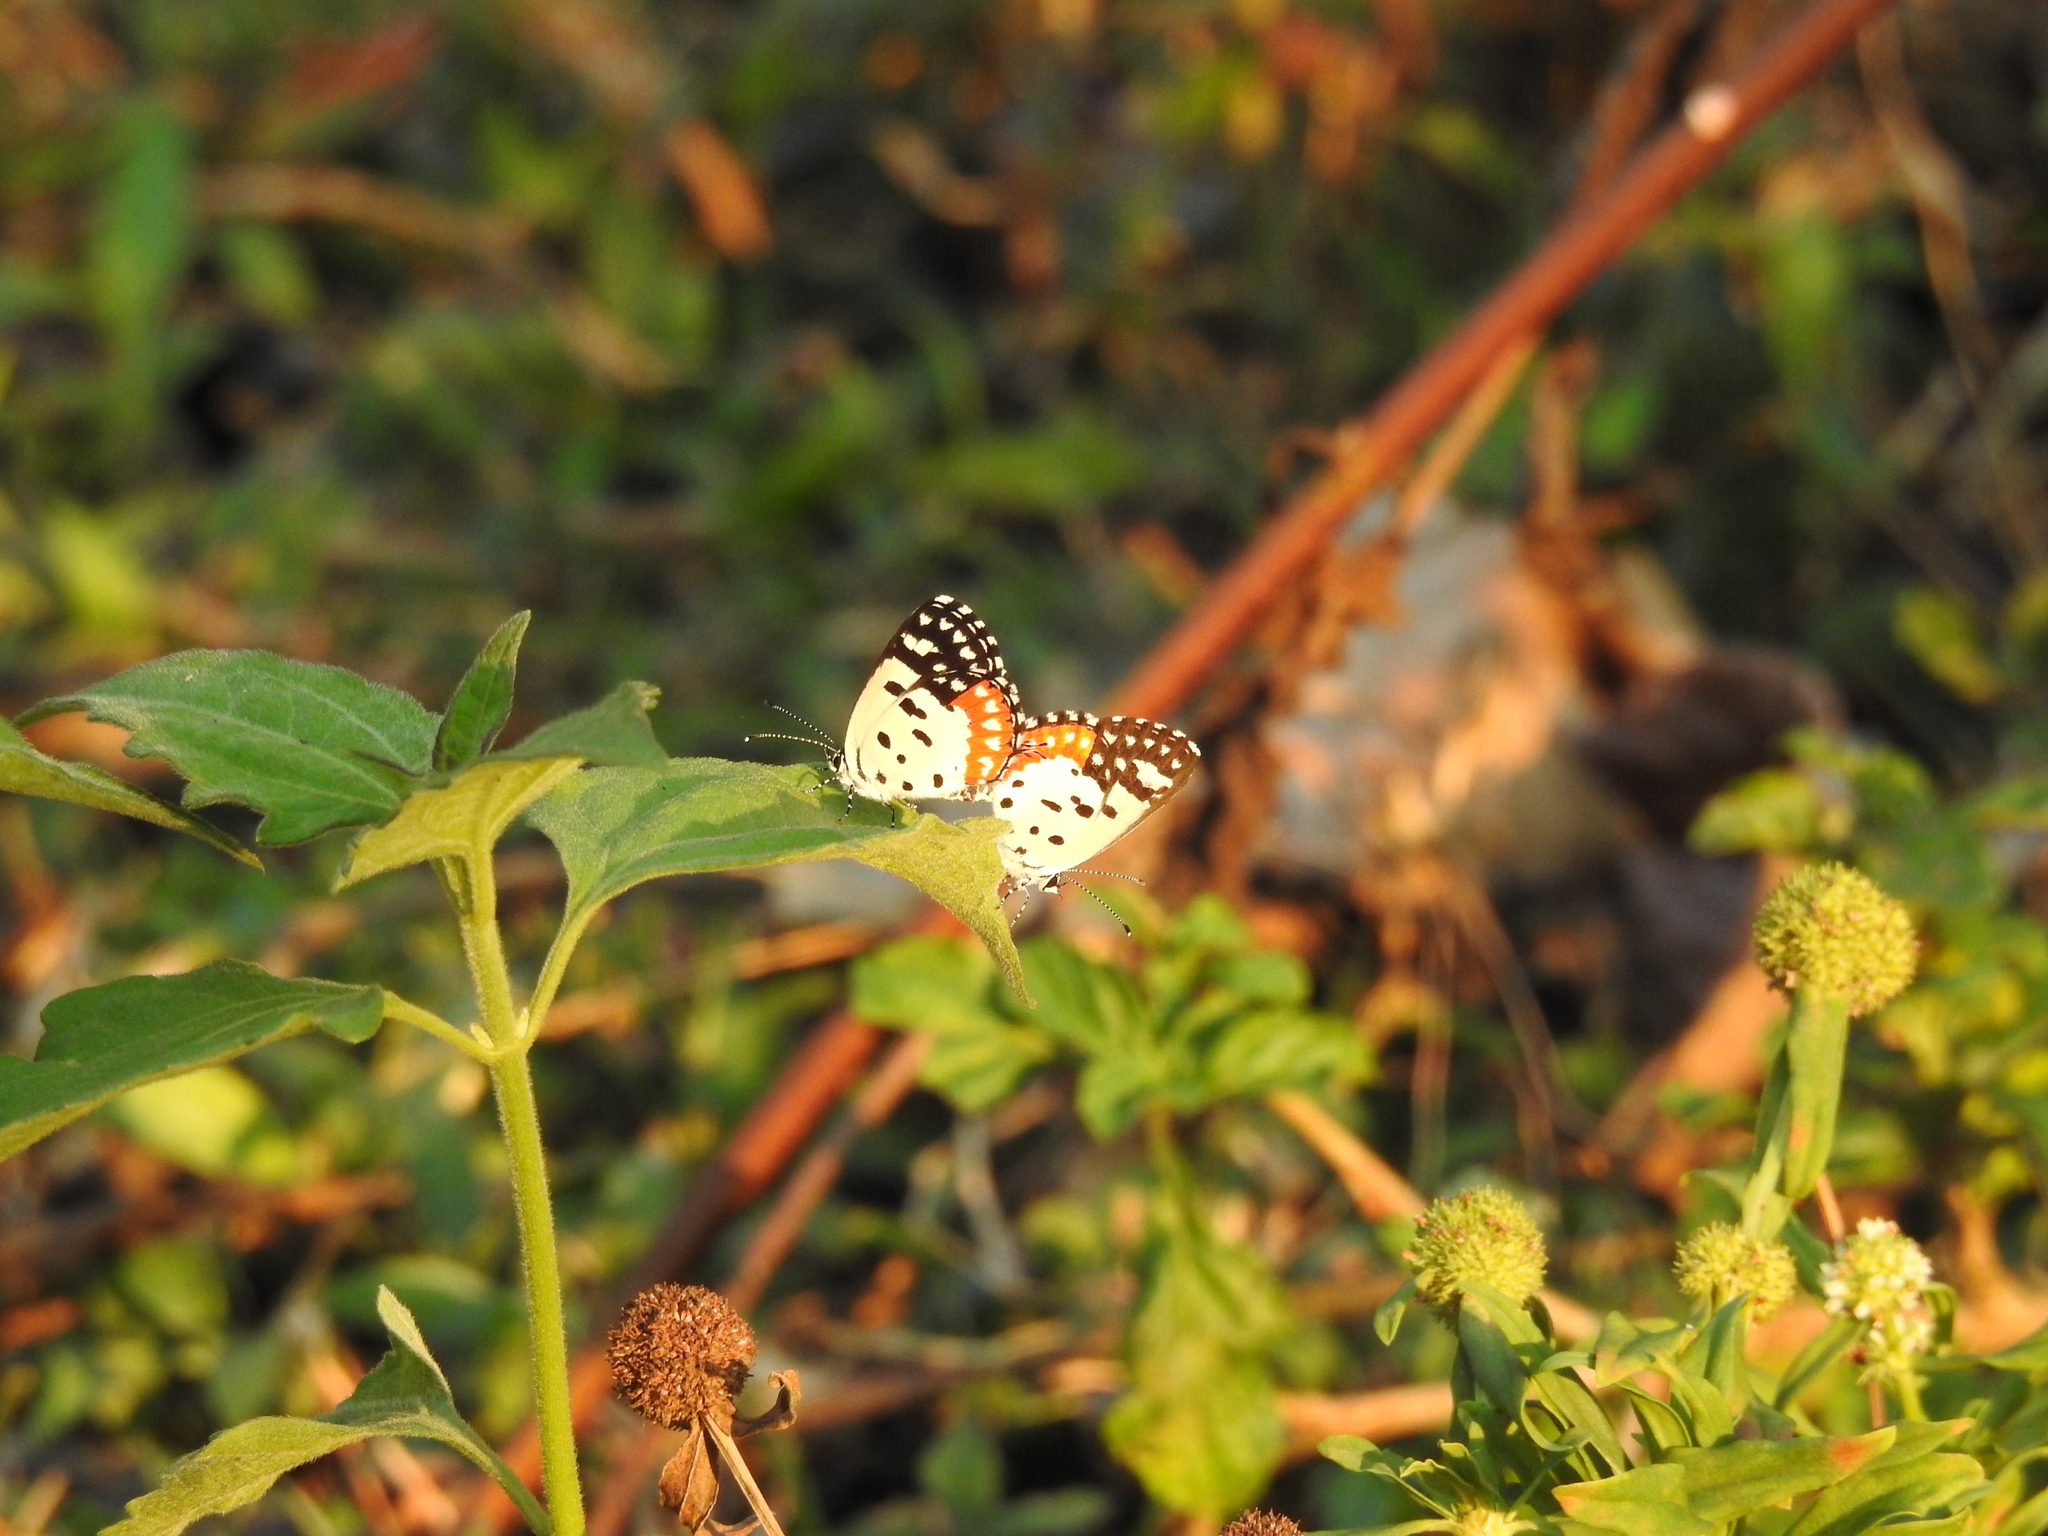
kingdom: Animalia
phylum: Arthropoda
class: Insecta
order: Lepidoptera
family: Lycaenidae
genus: Talicada
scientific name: Talicada nyseus
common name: Red pierrot
